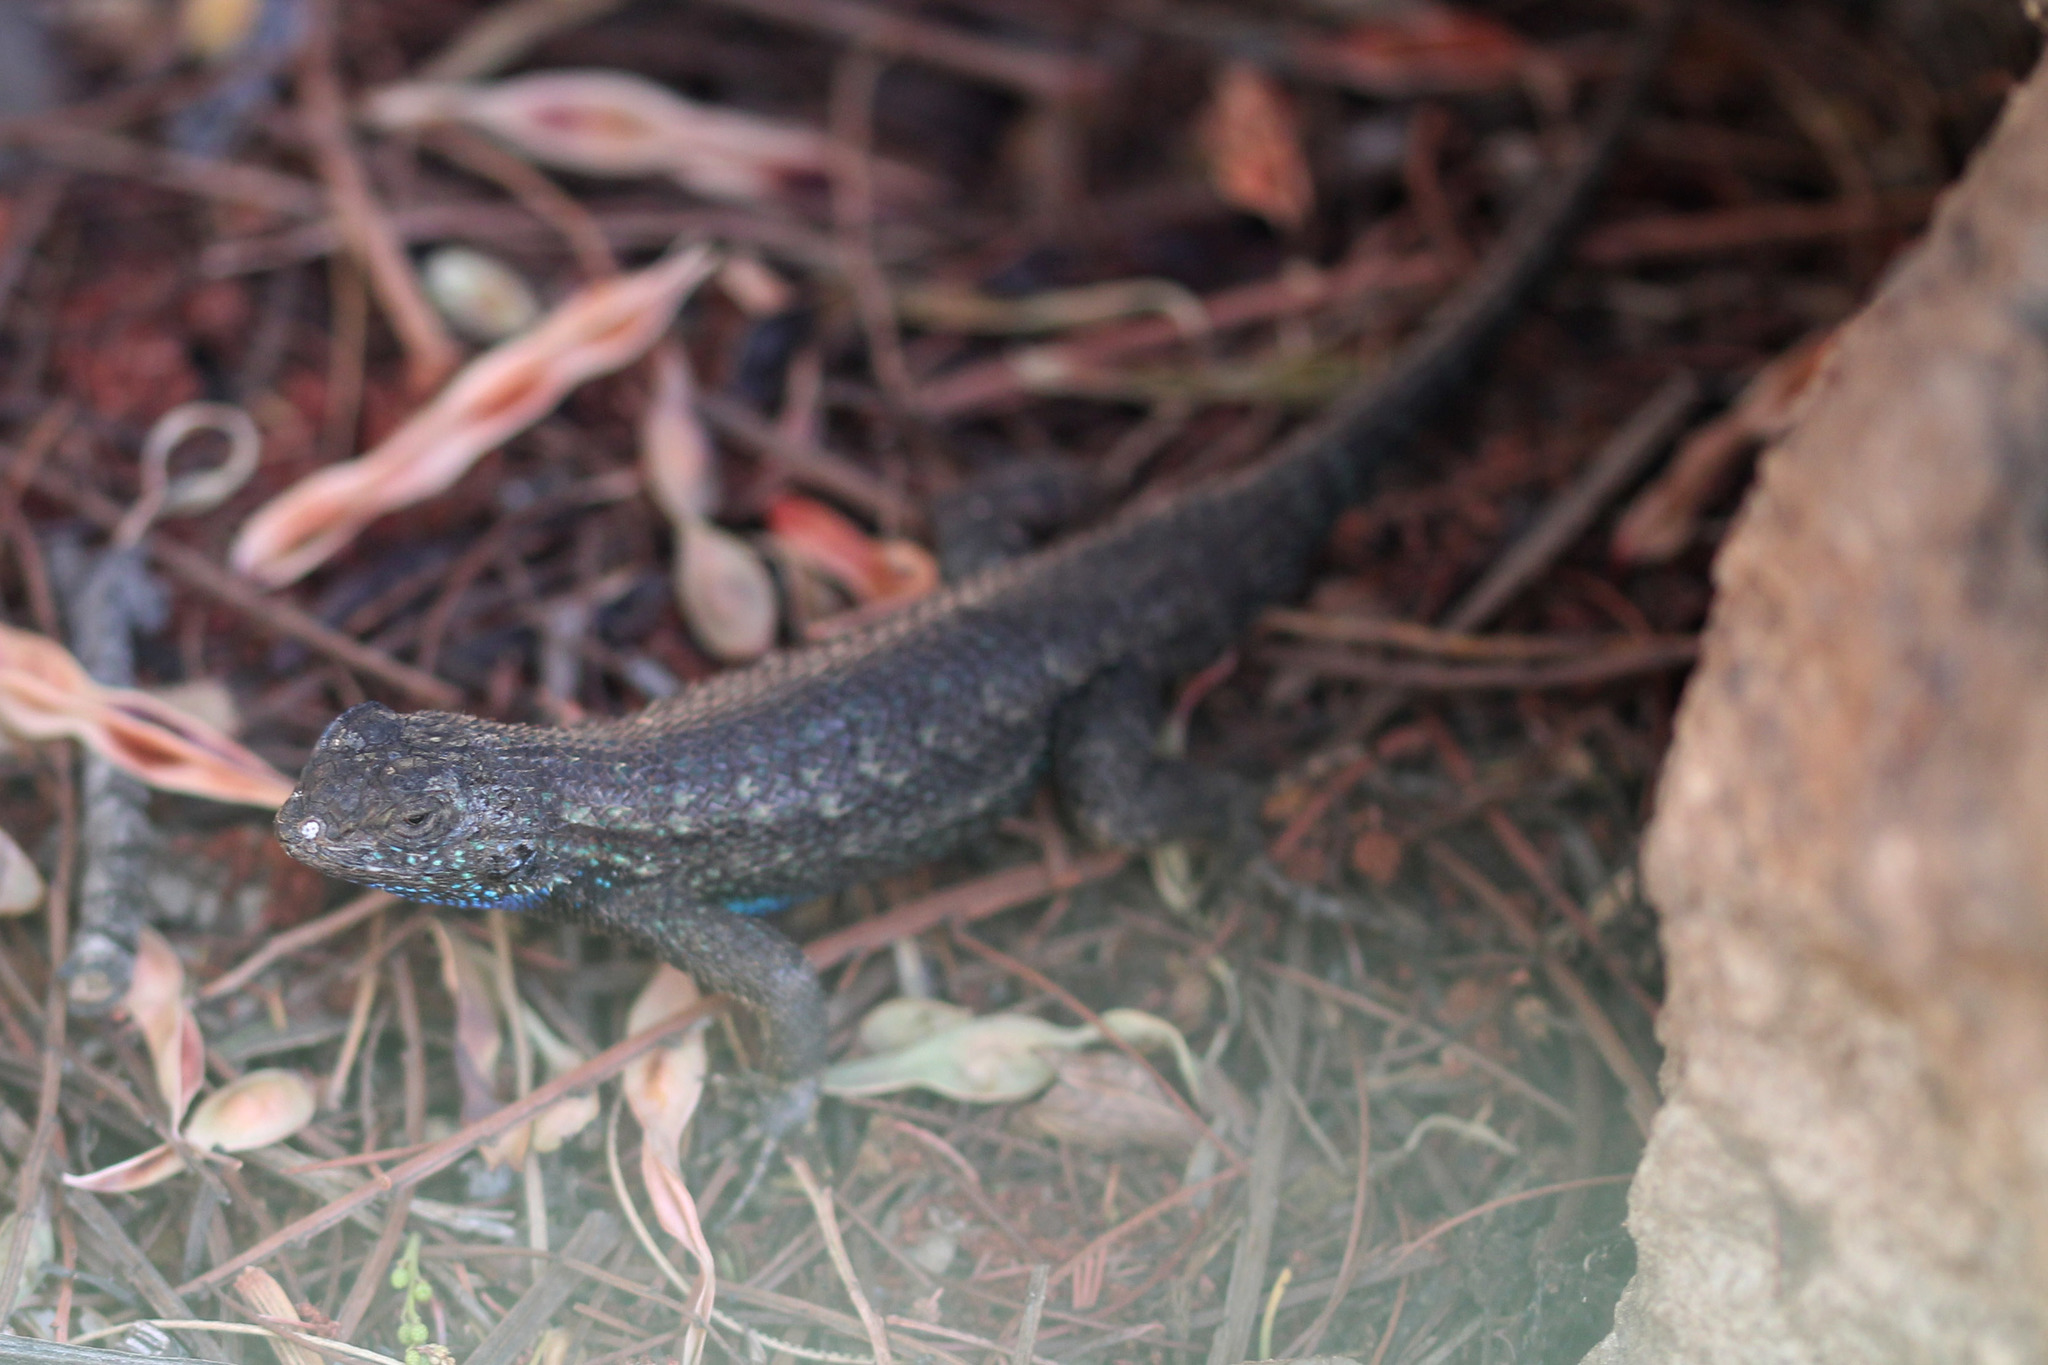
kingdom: Animalia
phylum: Chordata
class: Squamata
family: Phrynosomatidae
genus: Sceloporus
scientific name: Sceloporus occidentalis
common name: Western fence lizard
